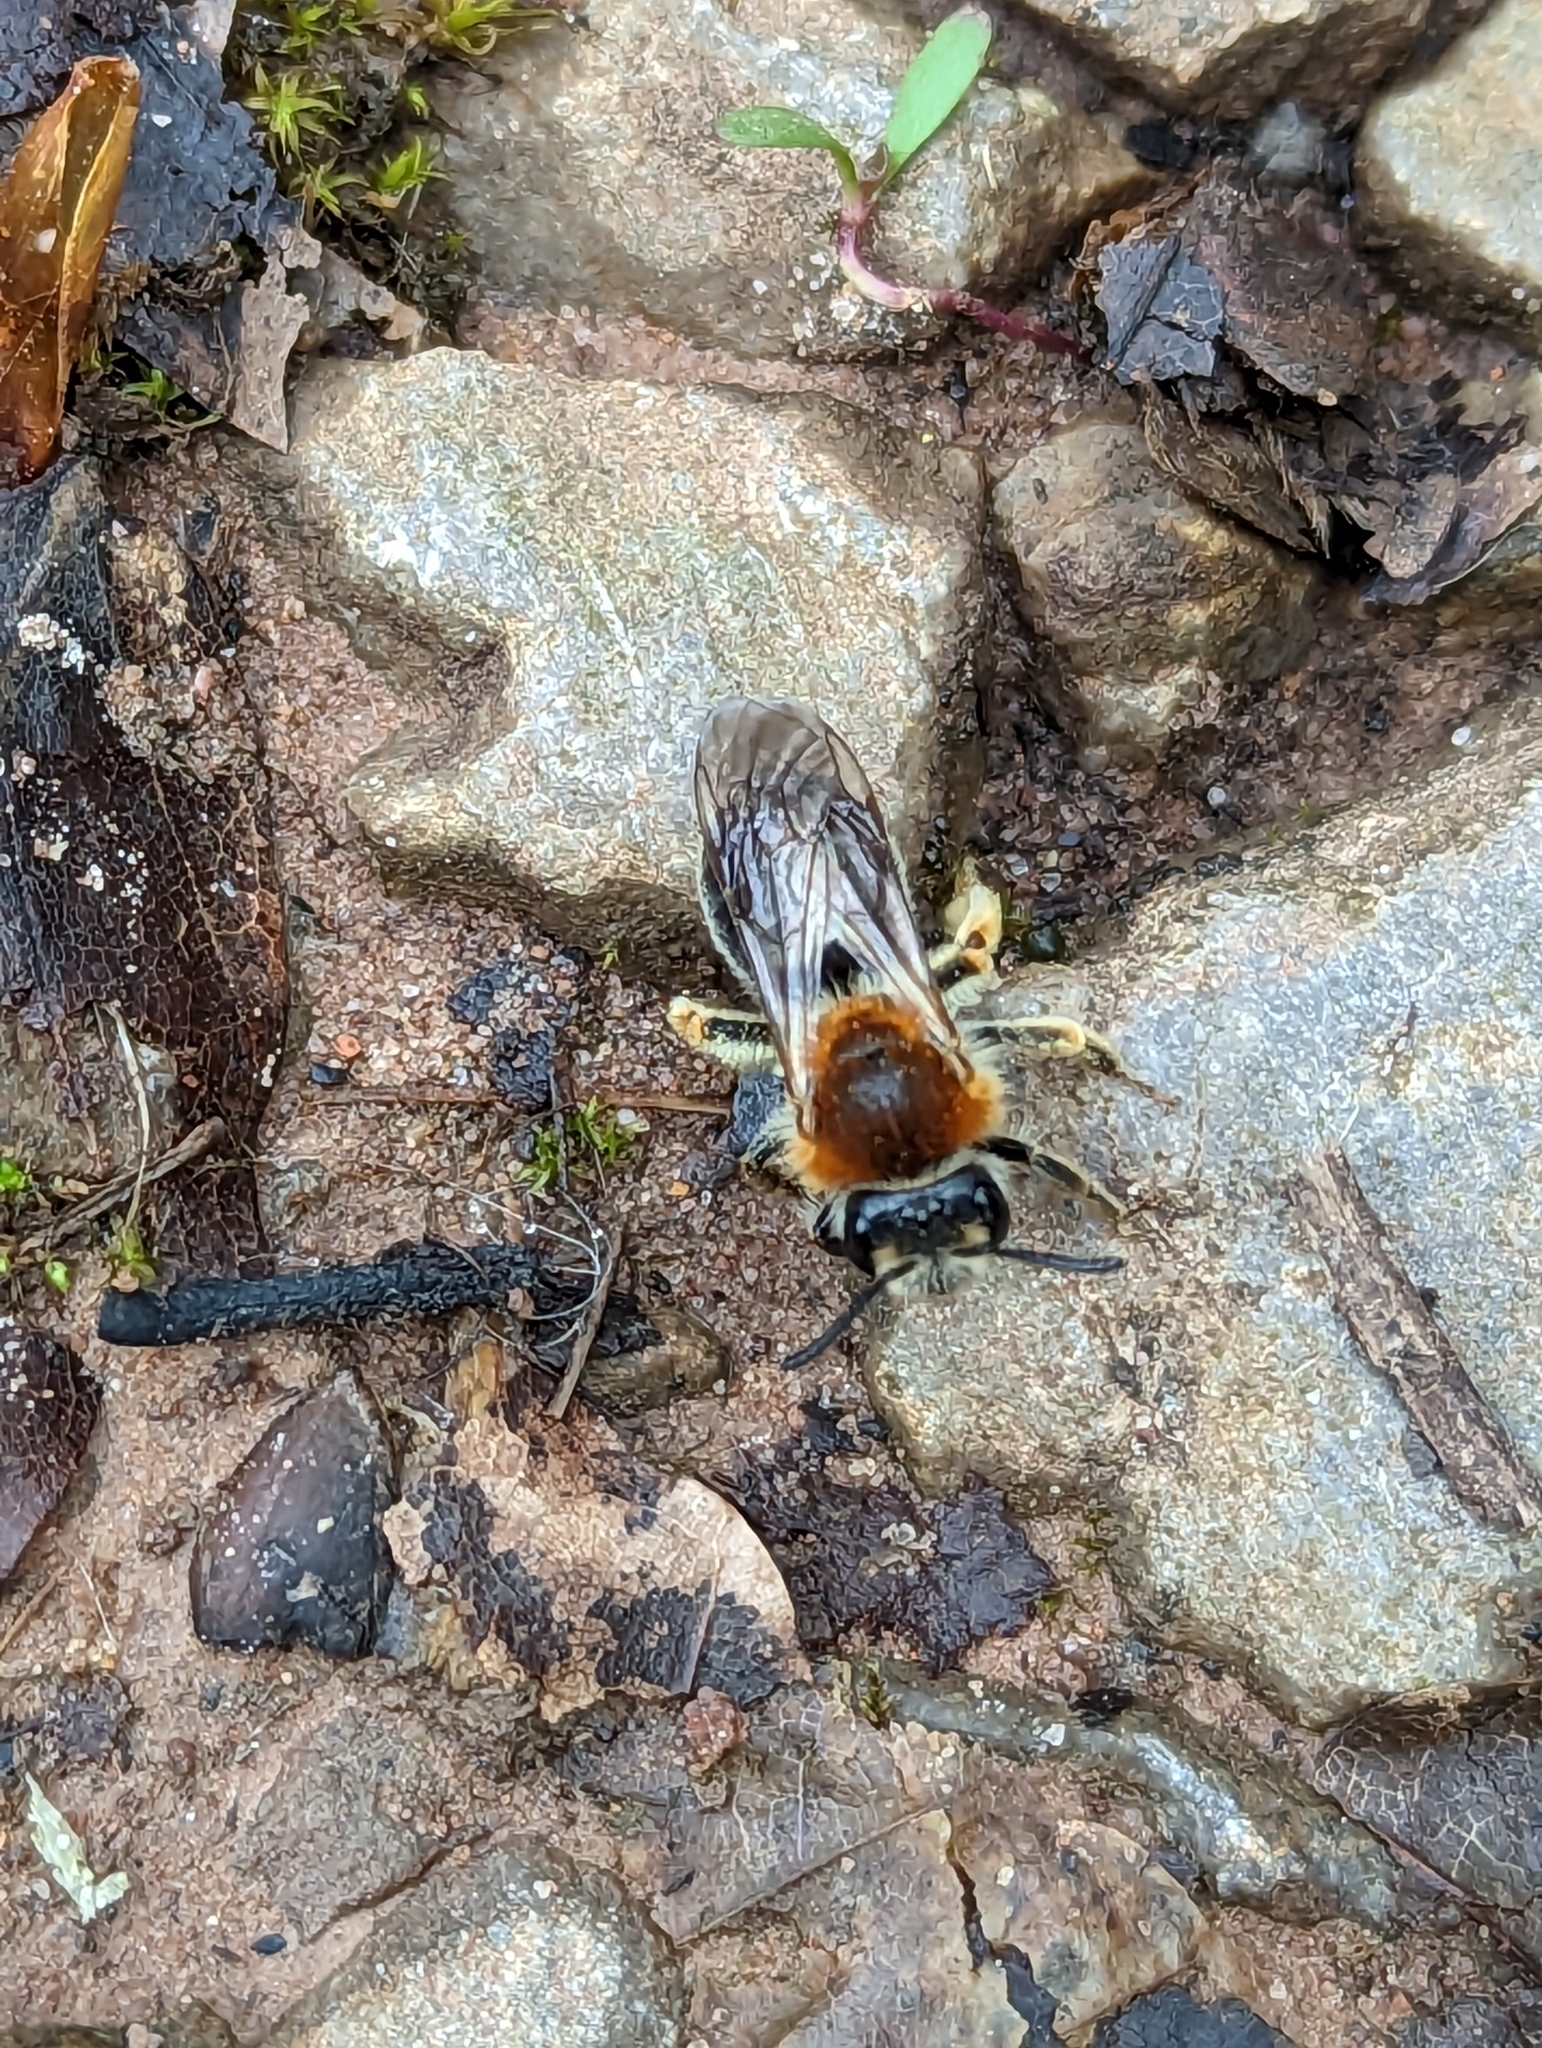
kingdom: Animalia
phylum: Arthropoda
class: Insecta
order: Hymenoptera
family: Andrenidae
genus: Andrena
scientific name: Andrena haemorrhoa
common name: Early mining bee
